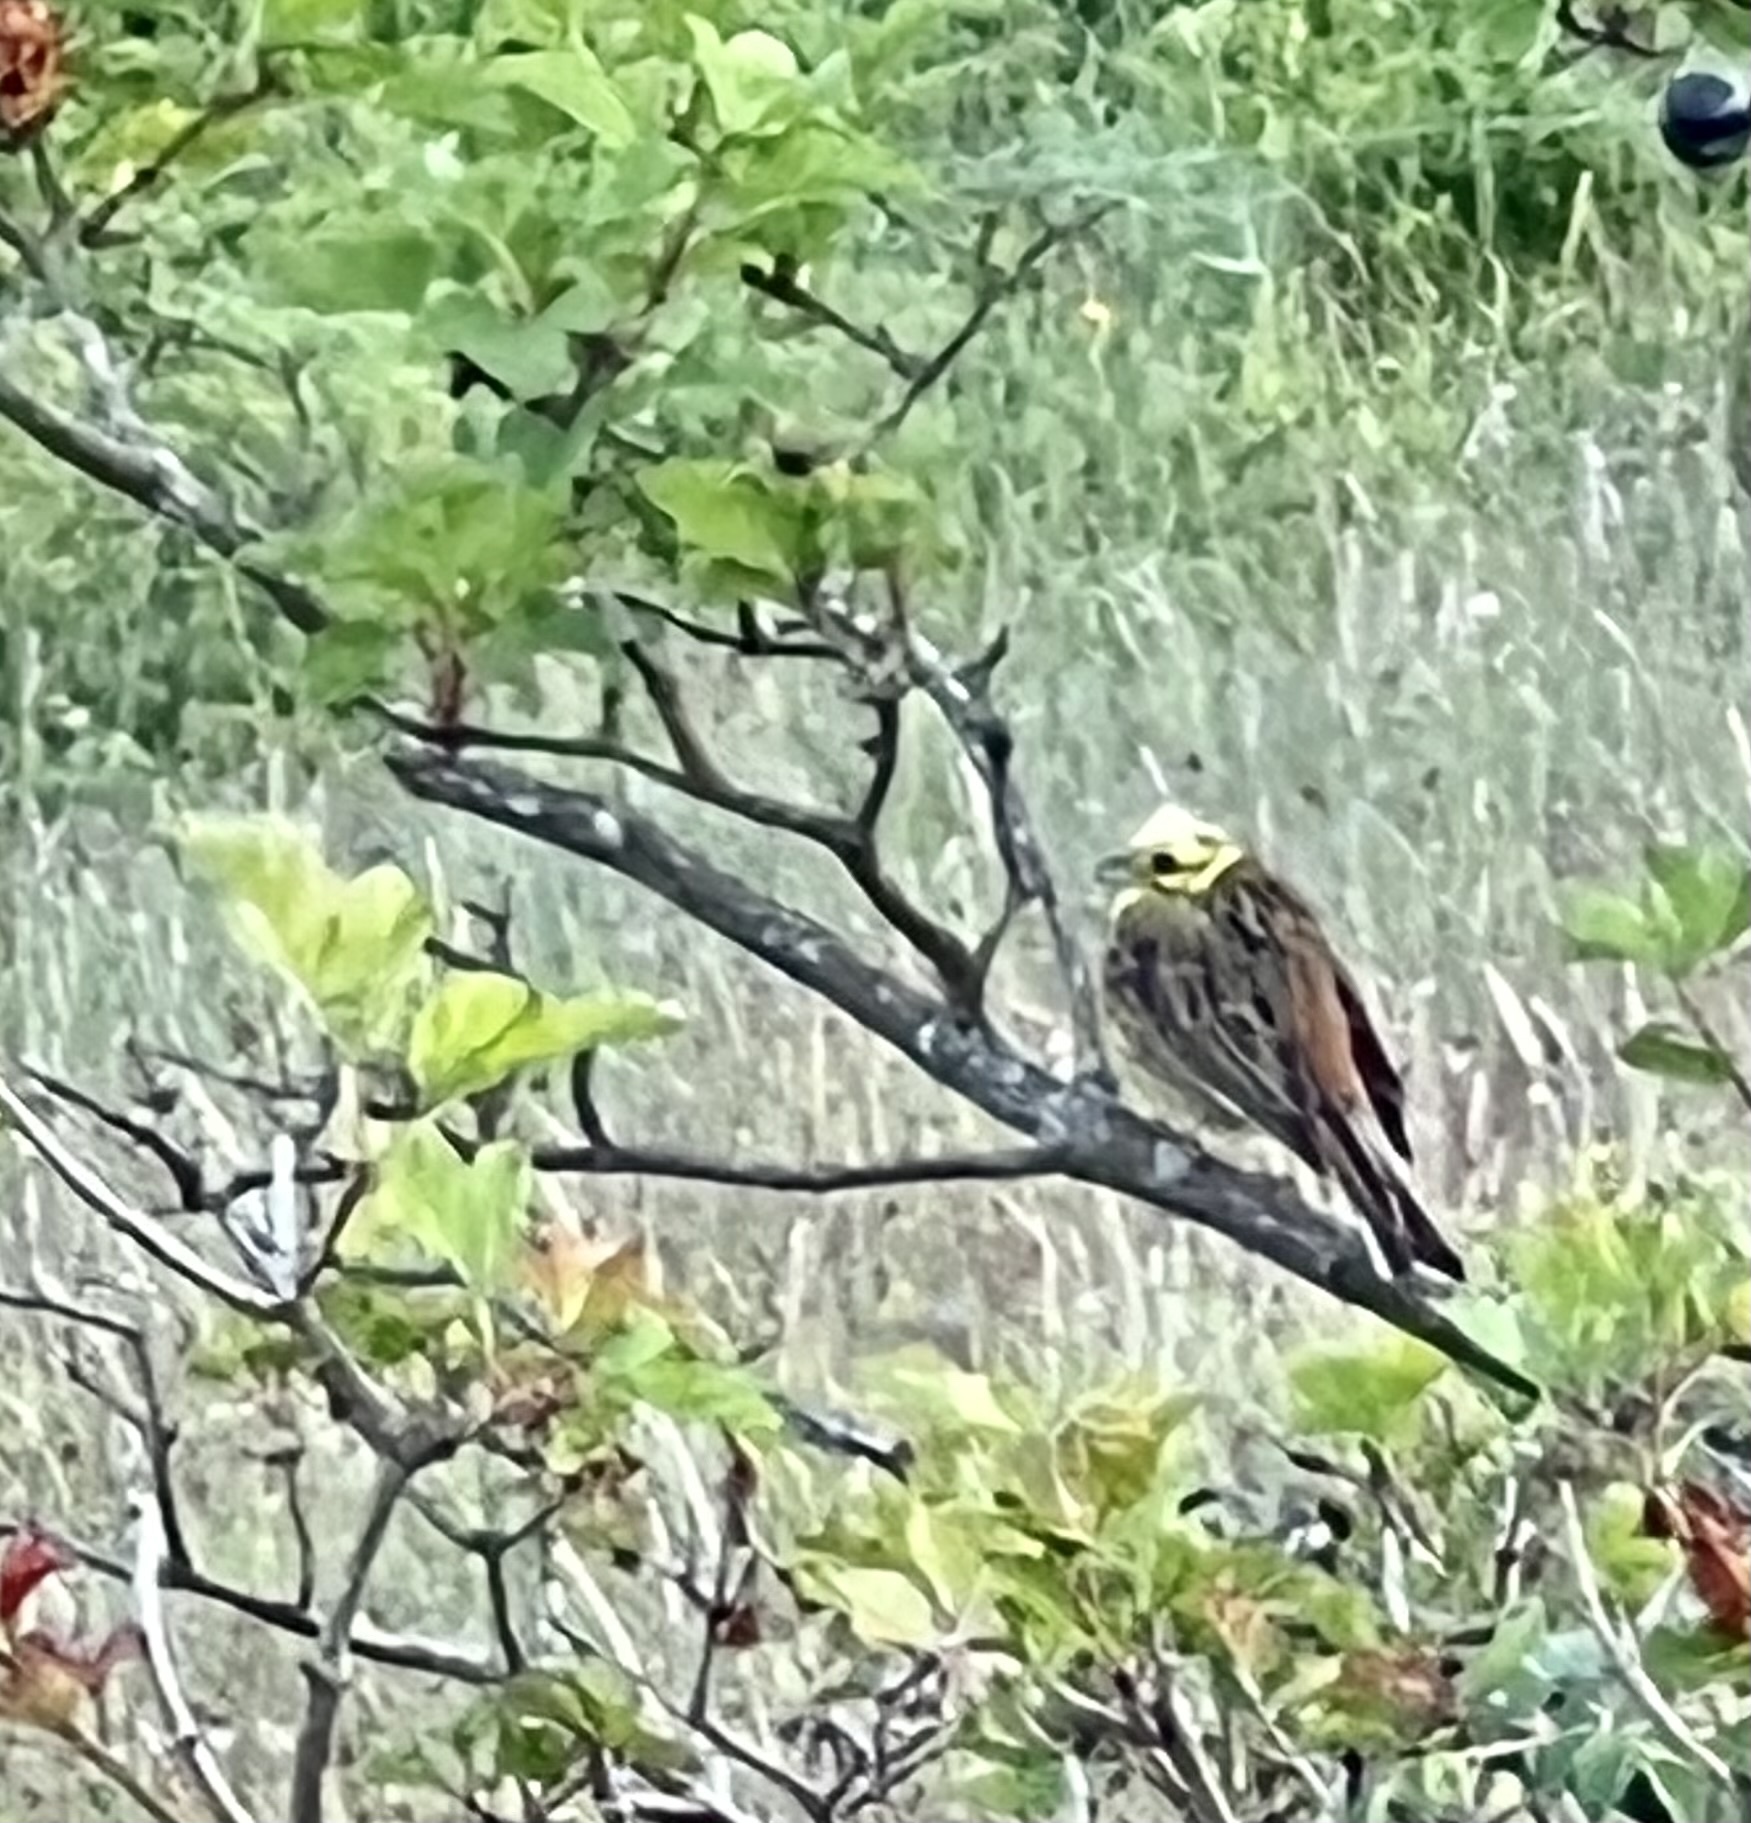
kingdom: Animalia
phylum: Chordata
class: Aves
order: Passeriformes
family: Emberizidae
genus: Emberiza
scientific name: Emberiza citrinella
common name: Yellowhammer
